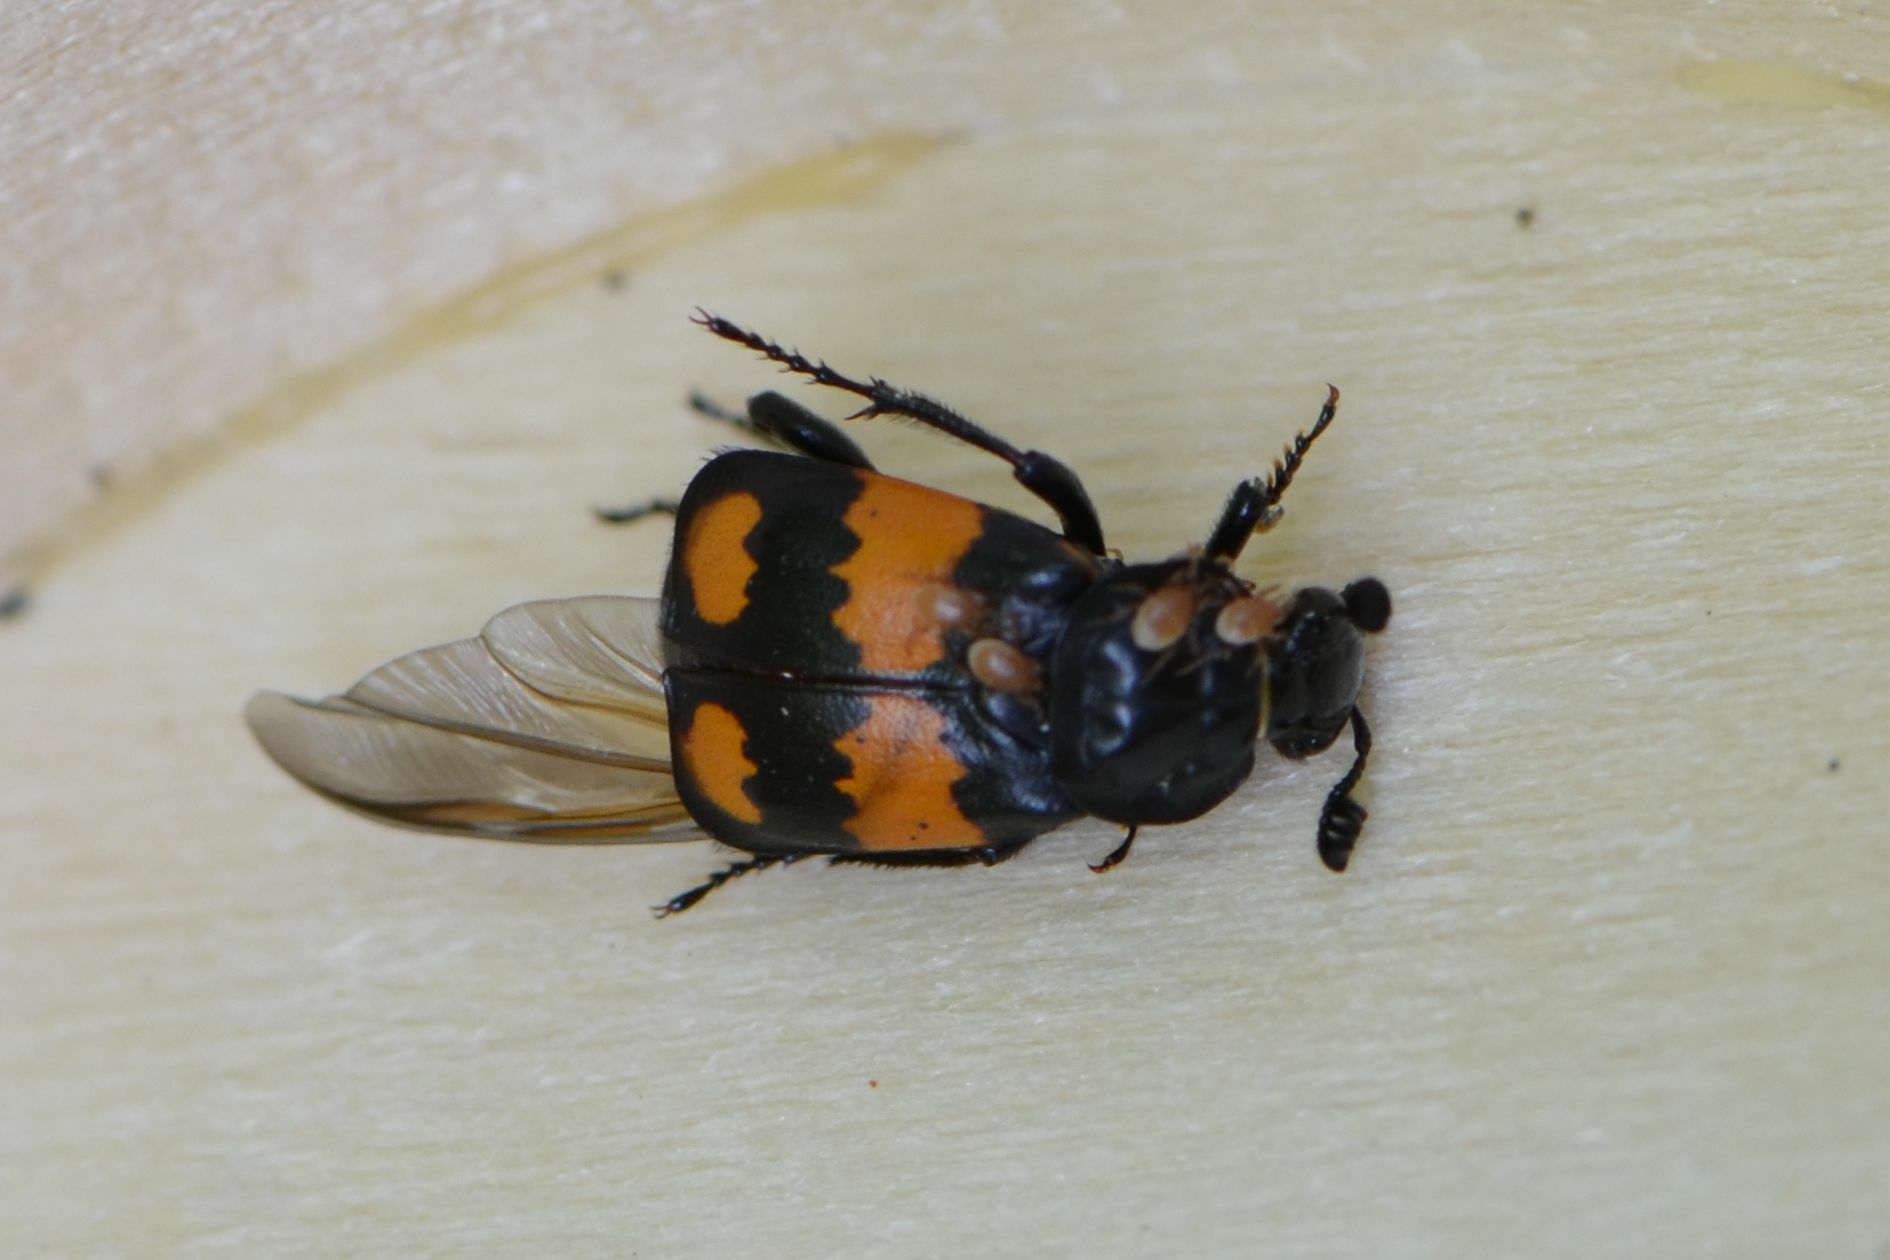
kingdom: Animalia
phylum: Arthropoda
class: Insecta
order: Coleoptera
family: Staphylinidae
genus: Nicrophorus
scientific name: Nicrophorus vespilloides
